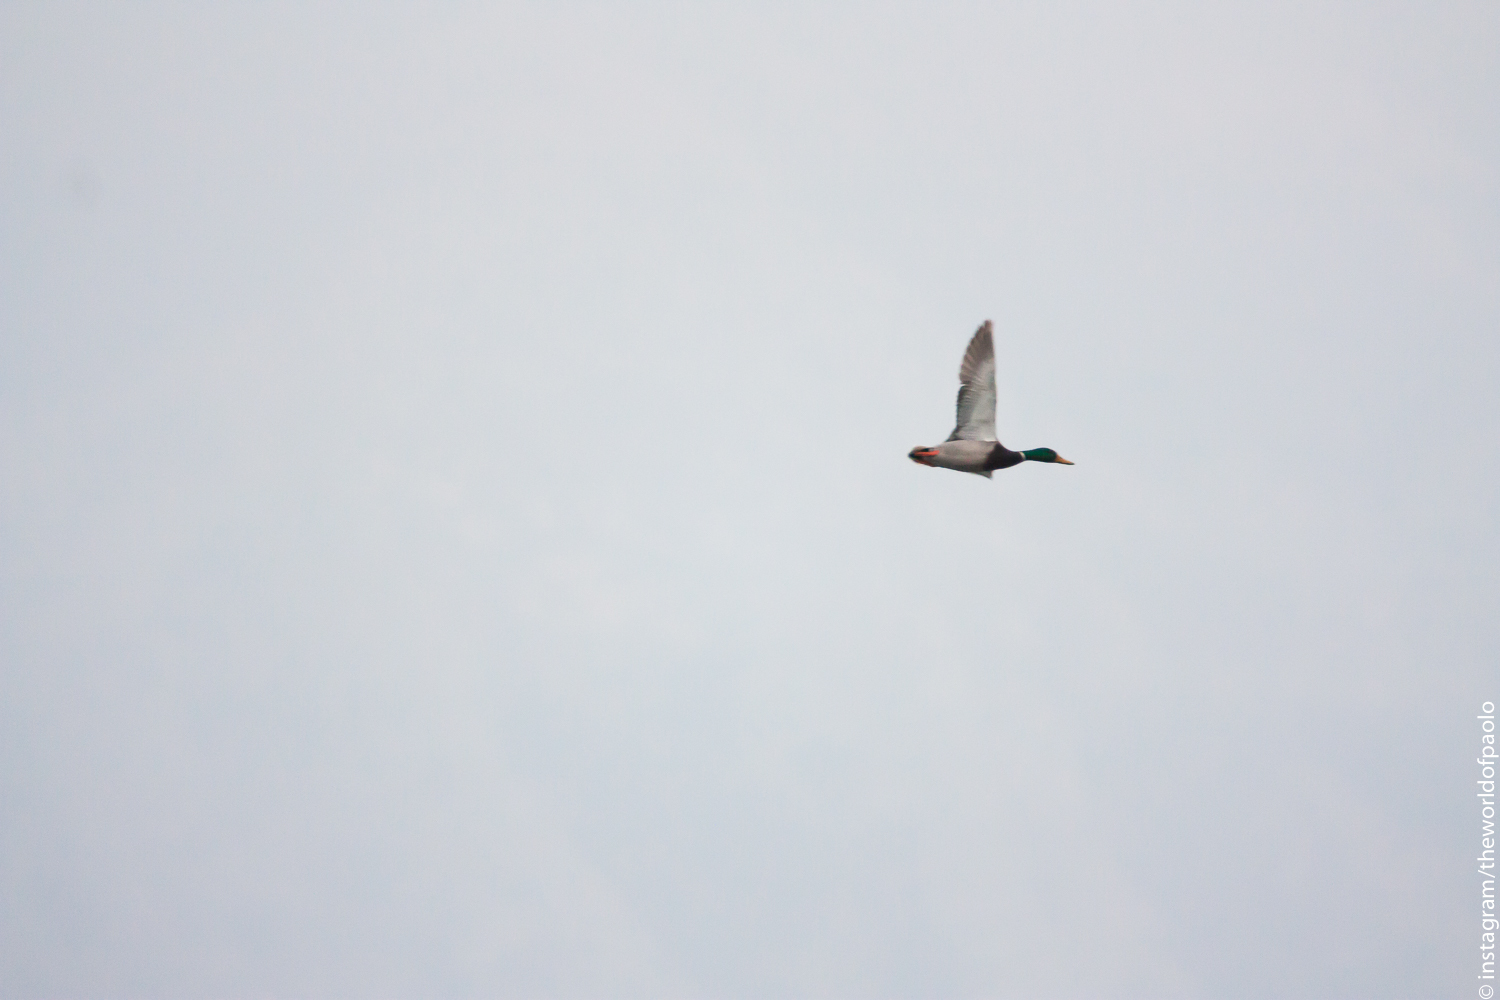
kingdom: Animalia
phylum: Chordata
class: Aves
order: Anseriformes
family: Anatidae
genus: Anas
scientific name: Anas platyrhynchos
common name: Mallard
